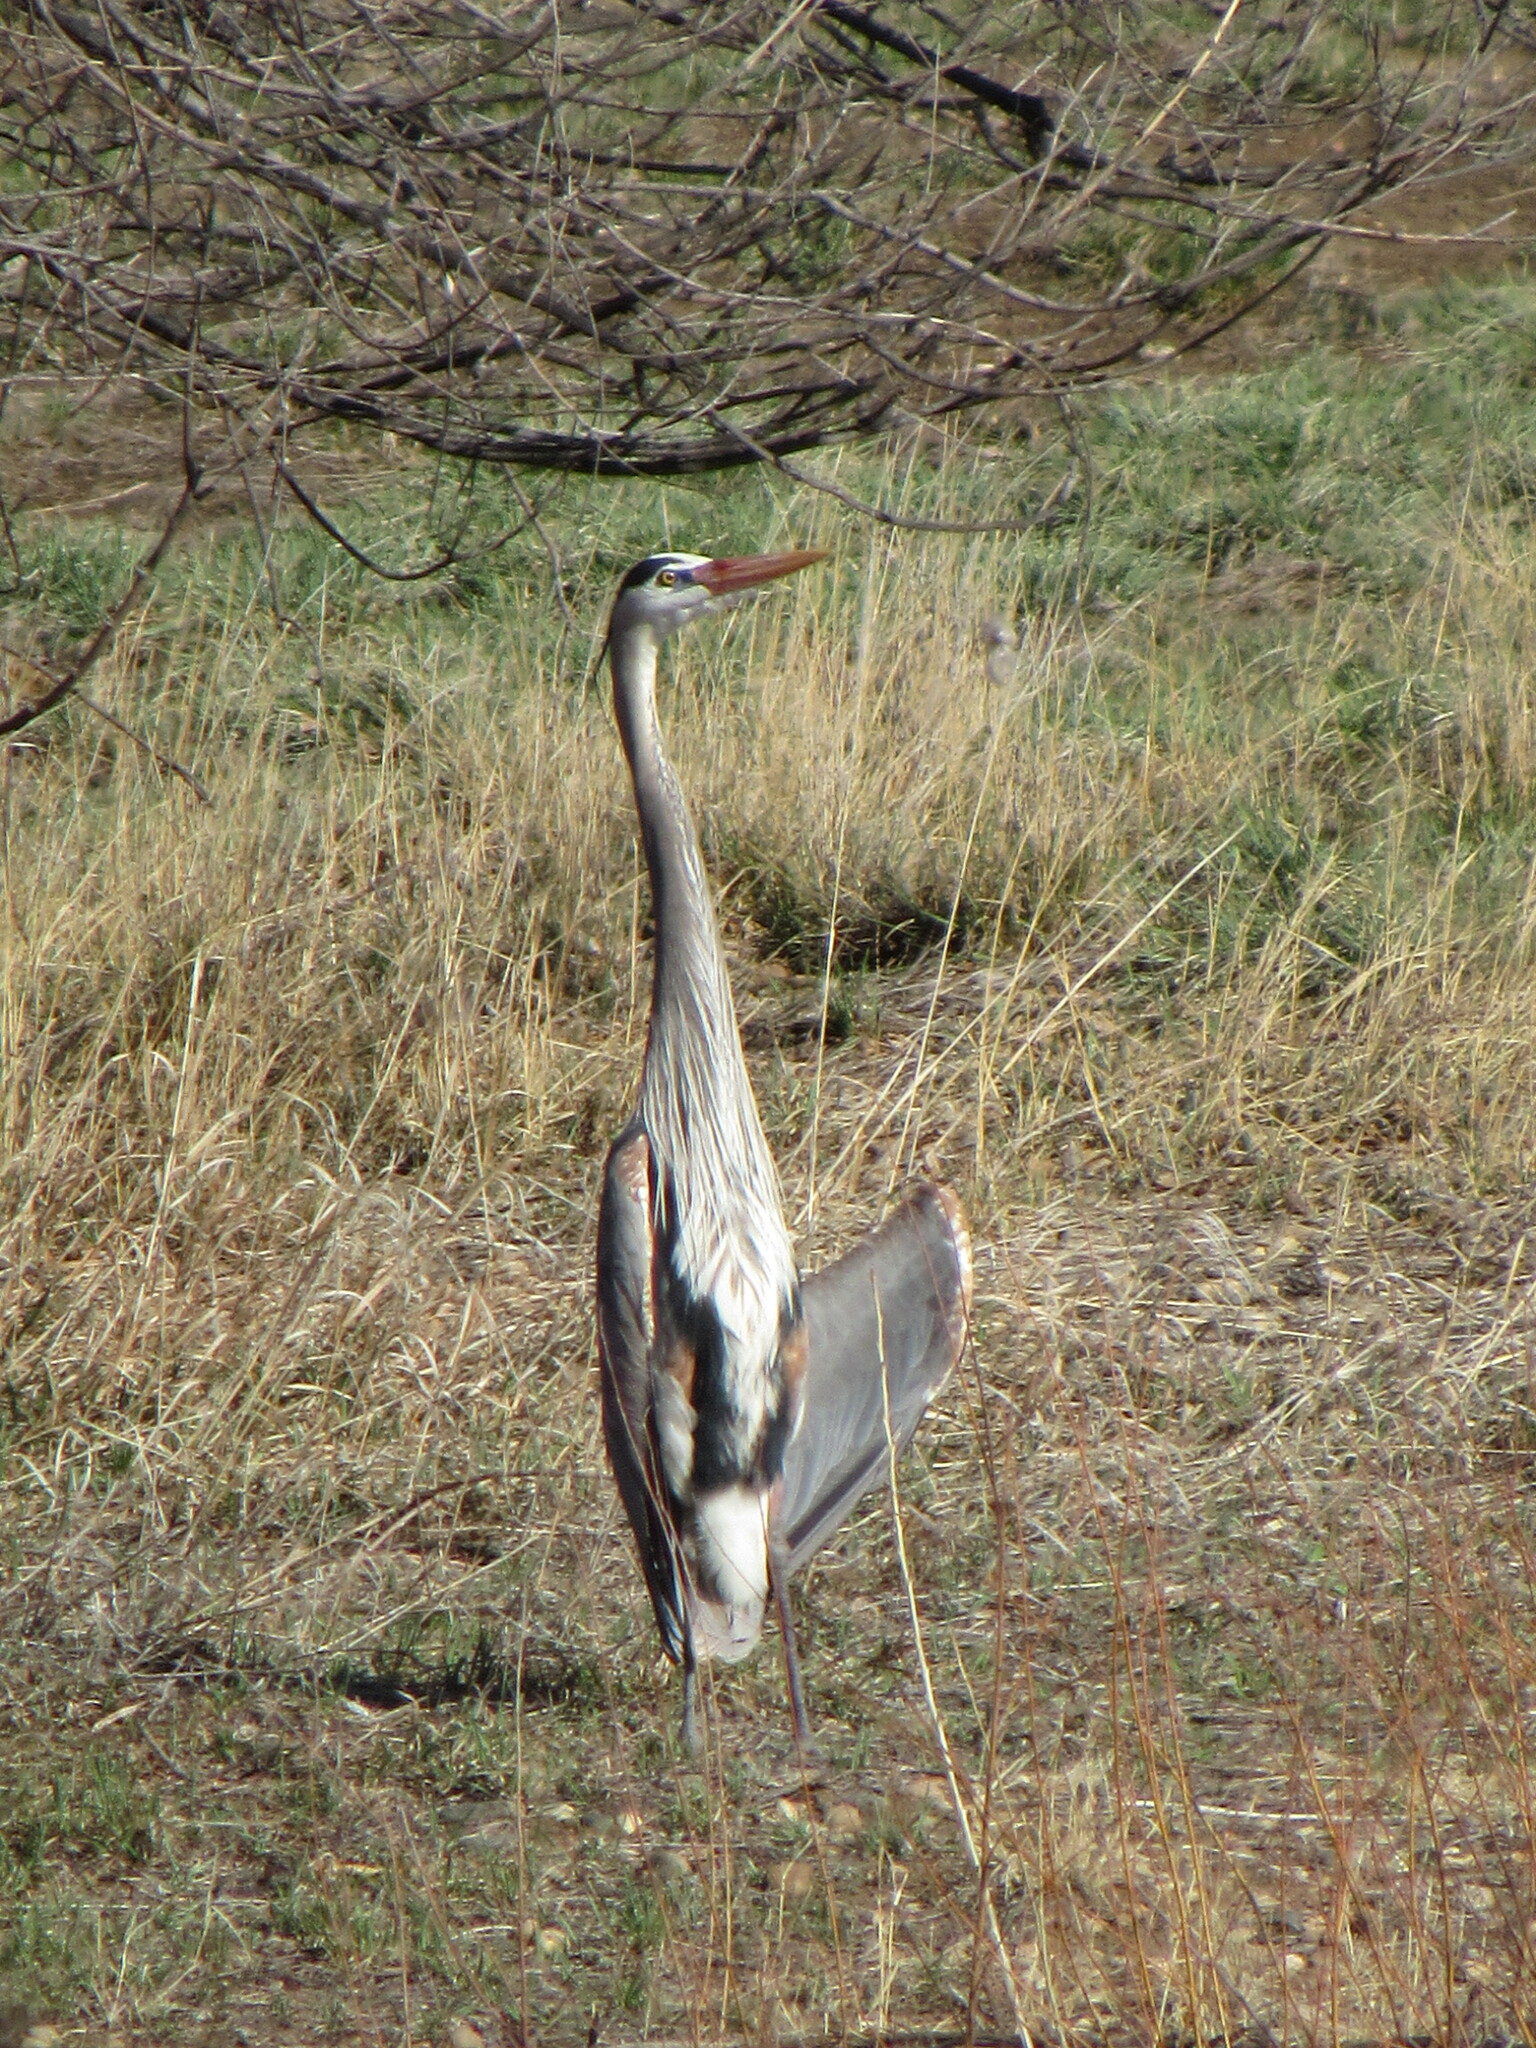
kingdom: Animalia
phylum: Chordata
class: Aves
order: Pelecaniformes
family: Ardeidae
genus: Ardea
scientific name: Ardea herodias
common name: Great blue heron
